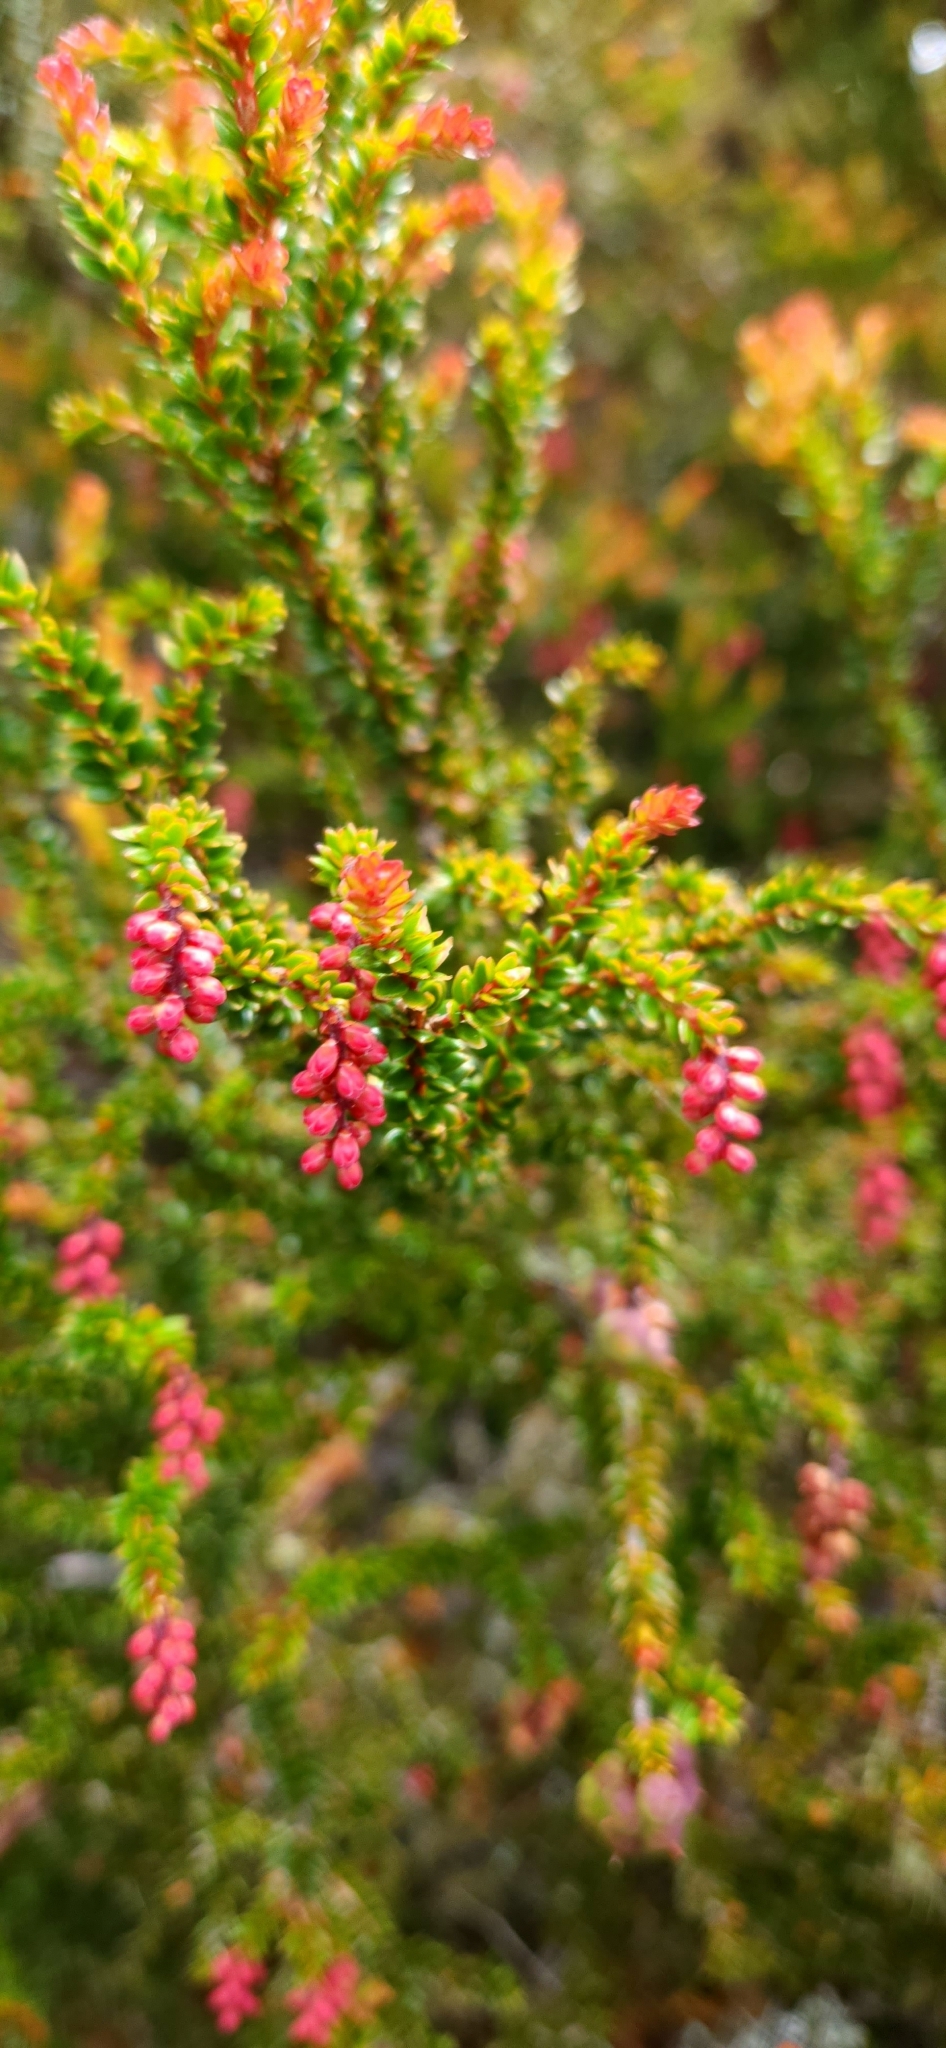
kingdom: Plantae
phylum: Tracheophyta
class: Magnoliopsida
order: Ericales
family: Ericaceae
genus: Trochocarpa
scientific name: Trochocarpa thymifolia
